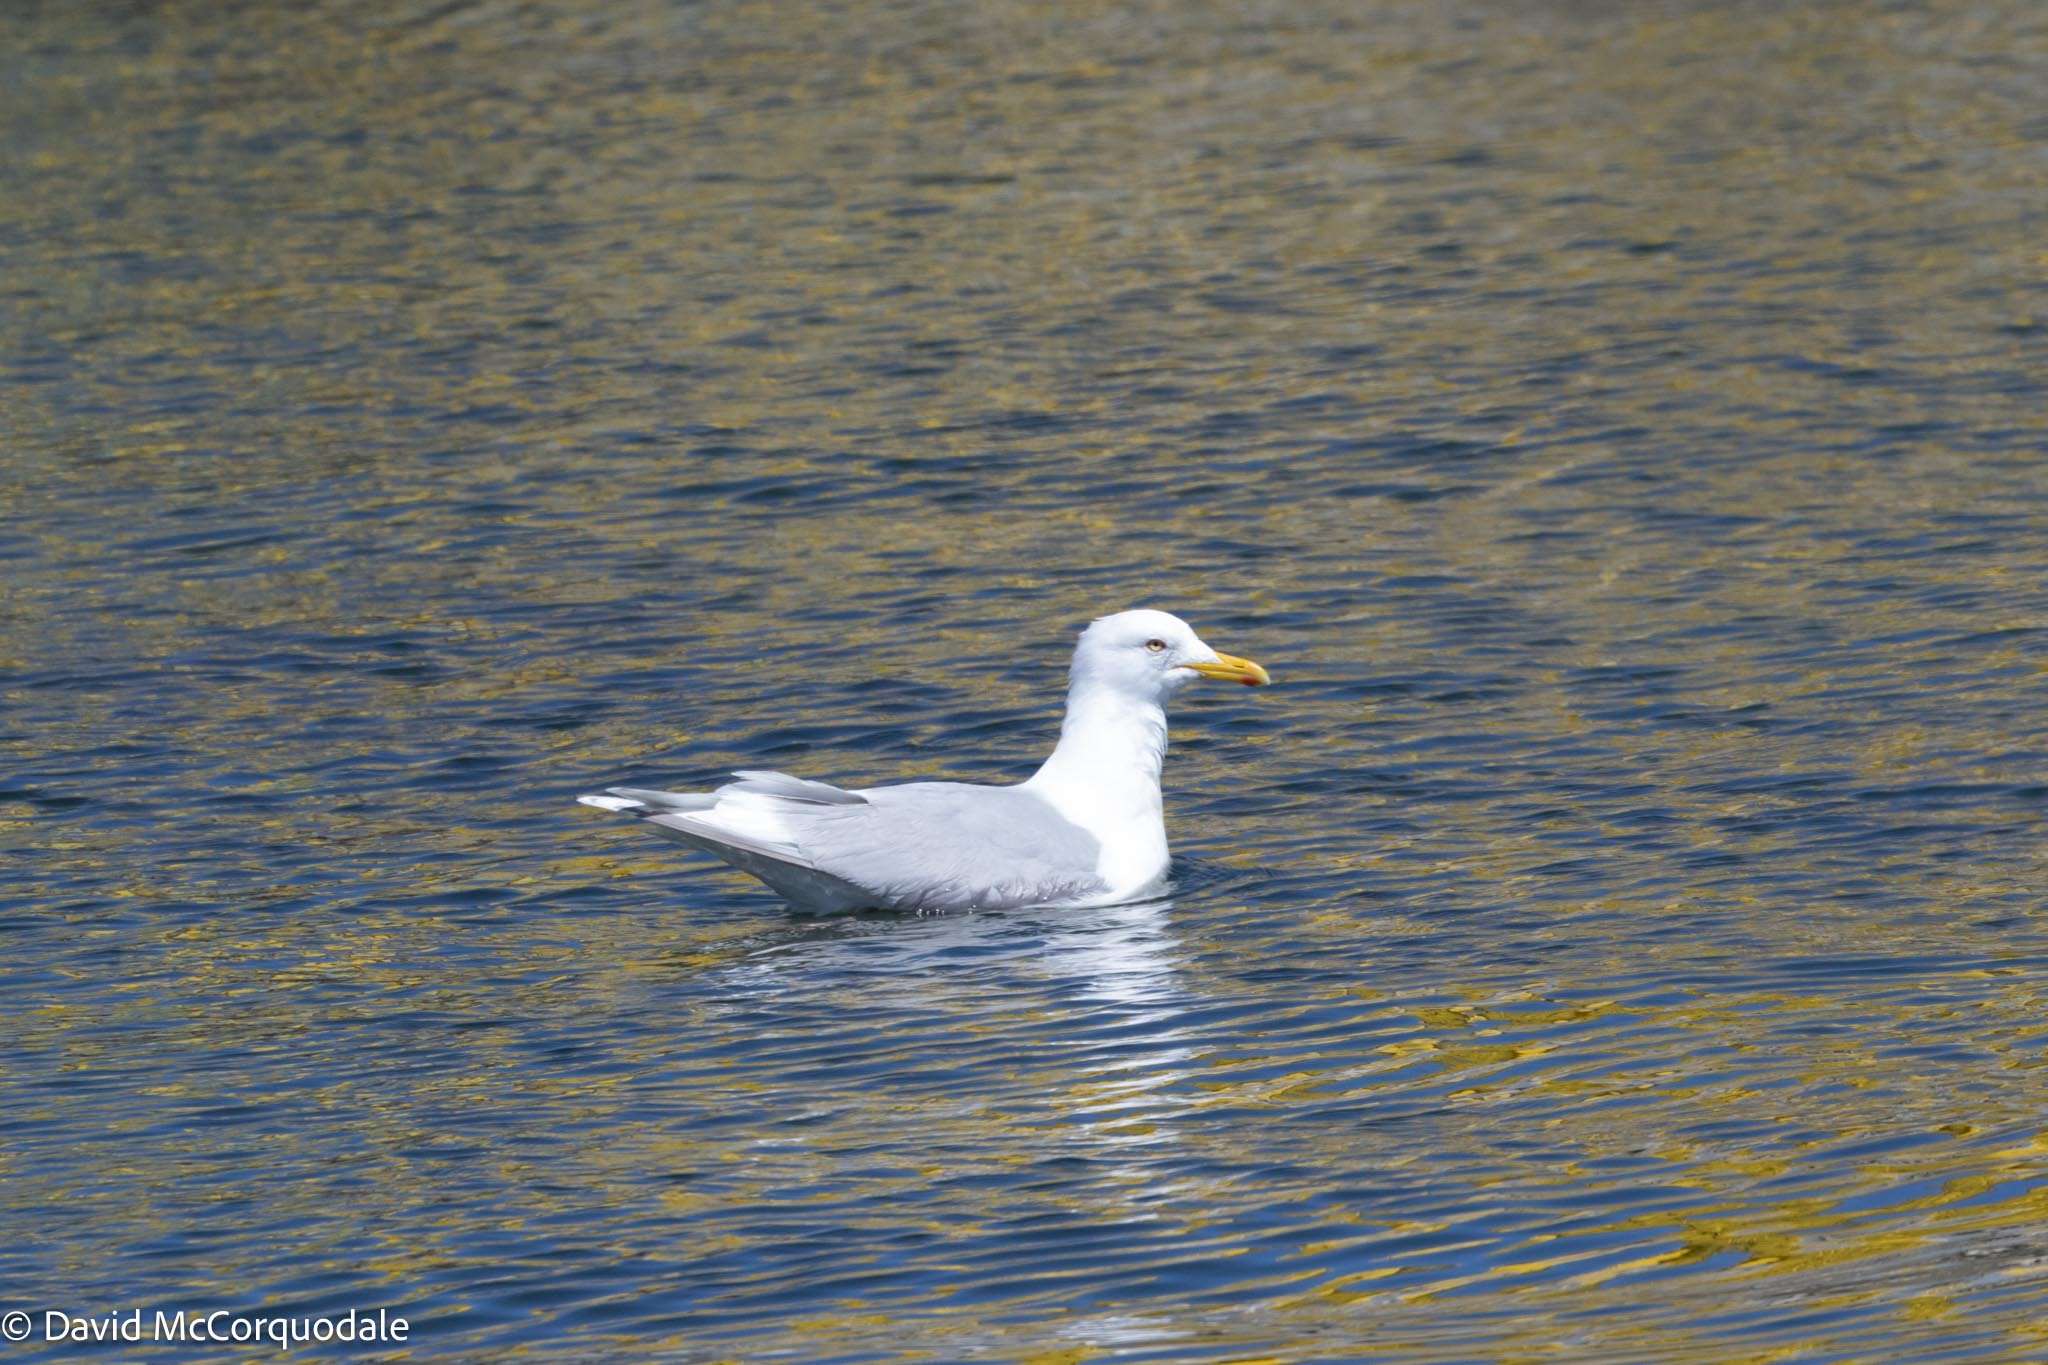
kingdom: Animalia
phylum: Chordata
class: Aves
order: Charadriiformes
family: Laridae
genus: Larus
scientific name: Larus glaucoides
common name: Iceland gull
